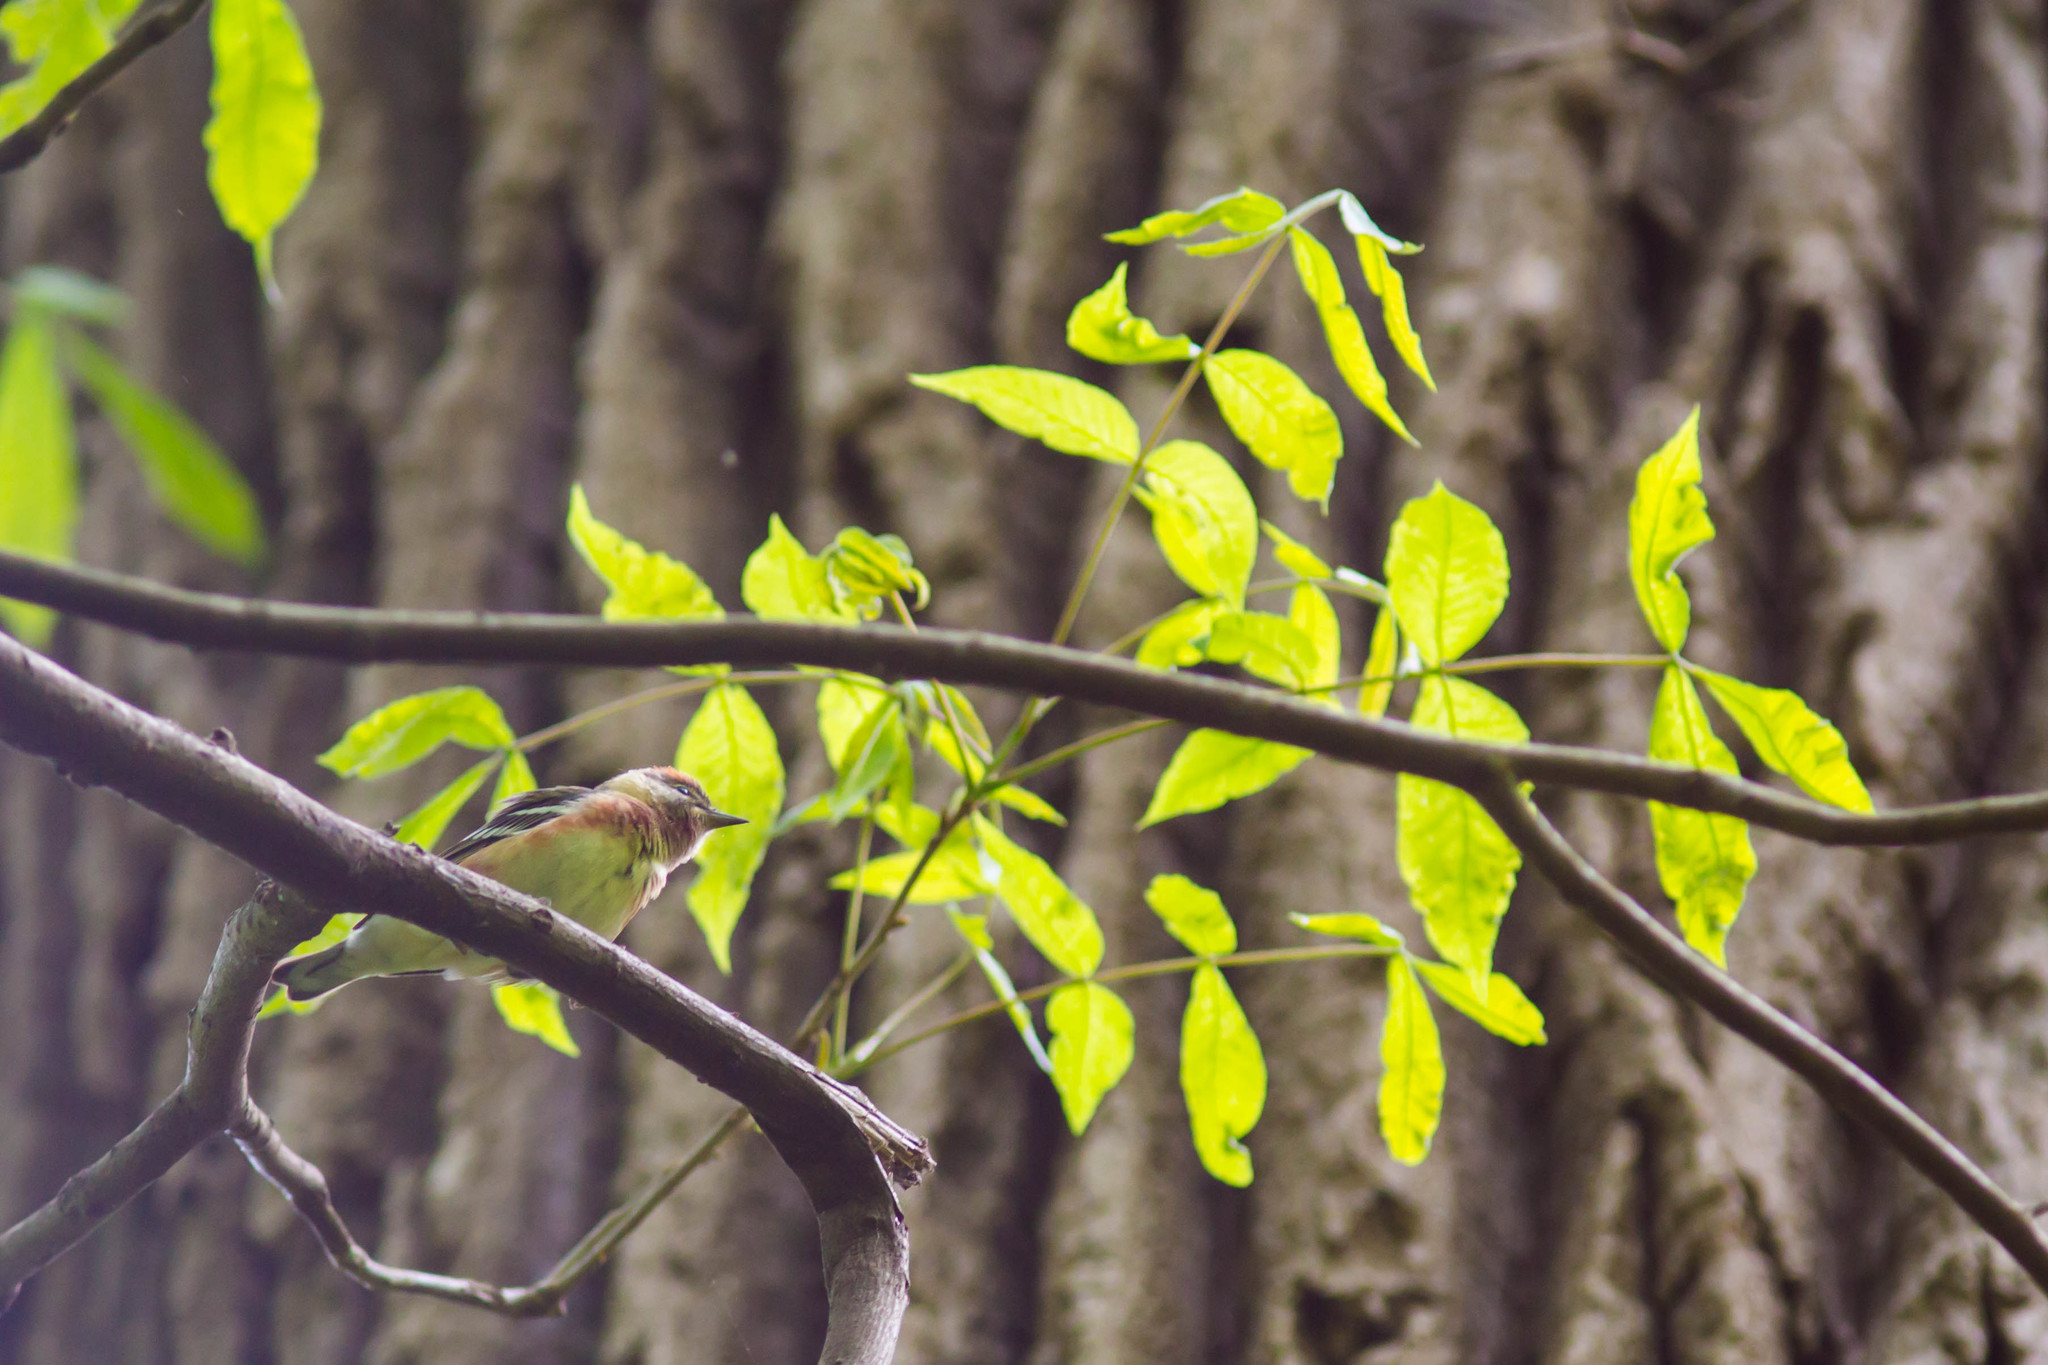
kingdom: Animalia
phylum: Chordata
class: Aves
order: Passeriformes
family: Parulidae
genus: Setophaga
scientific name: Setophaga castanea
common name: Bay-breasted warbler
